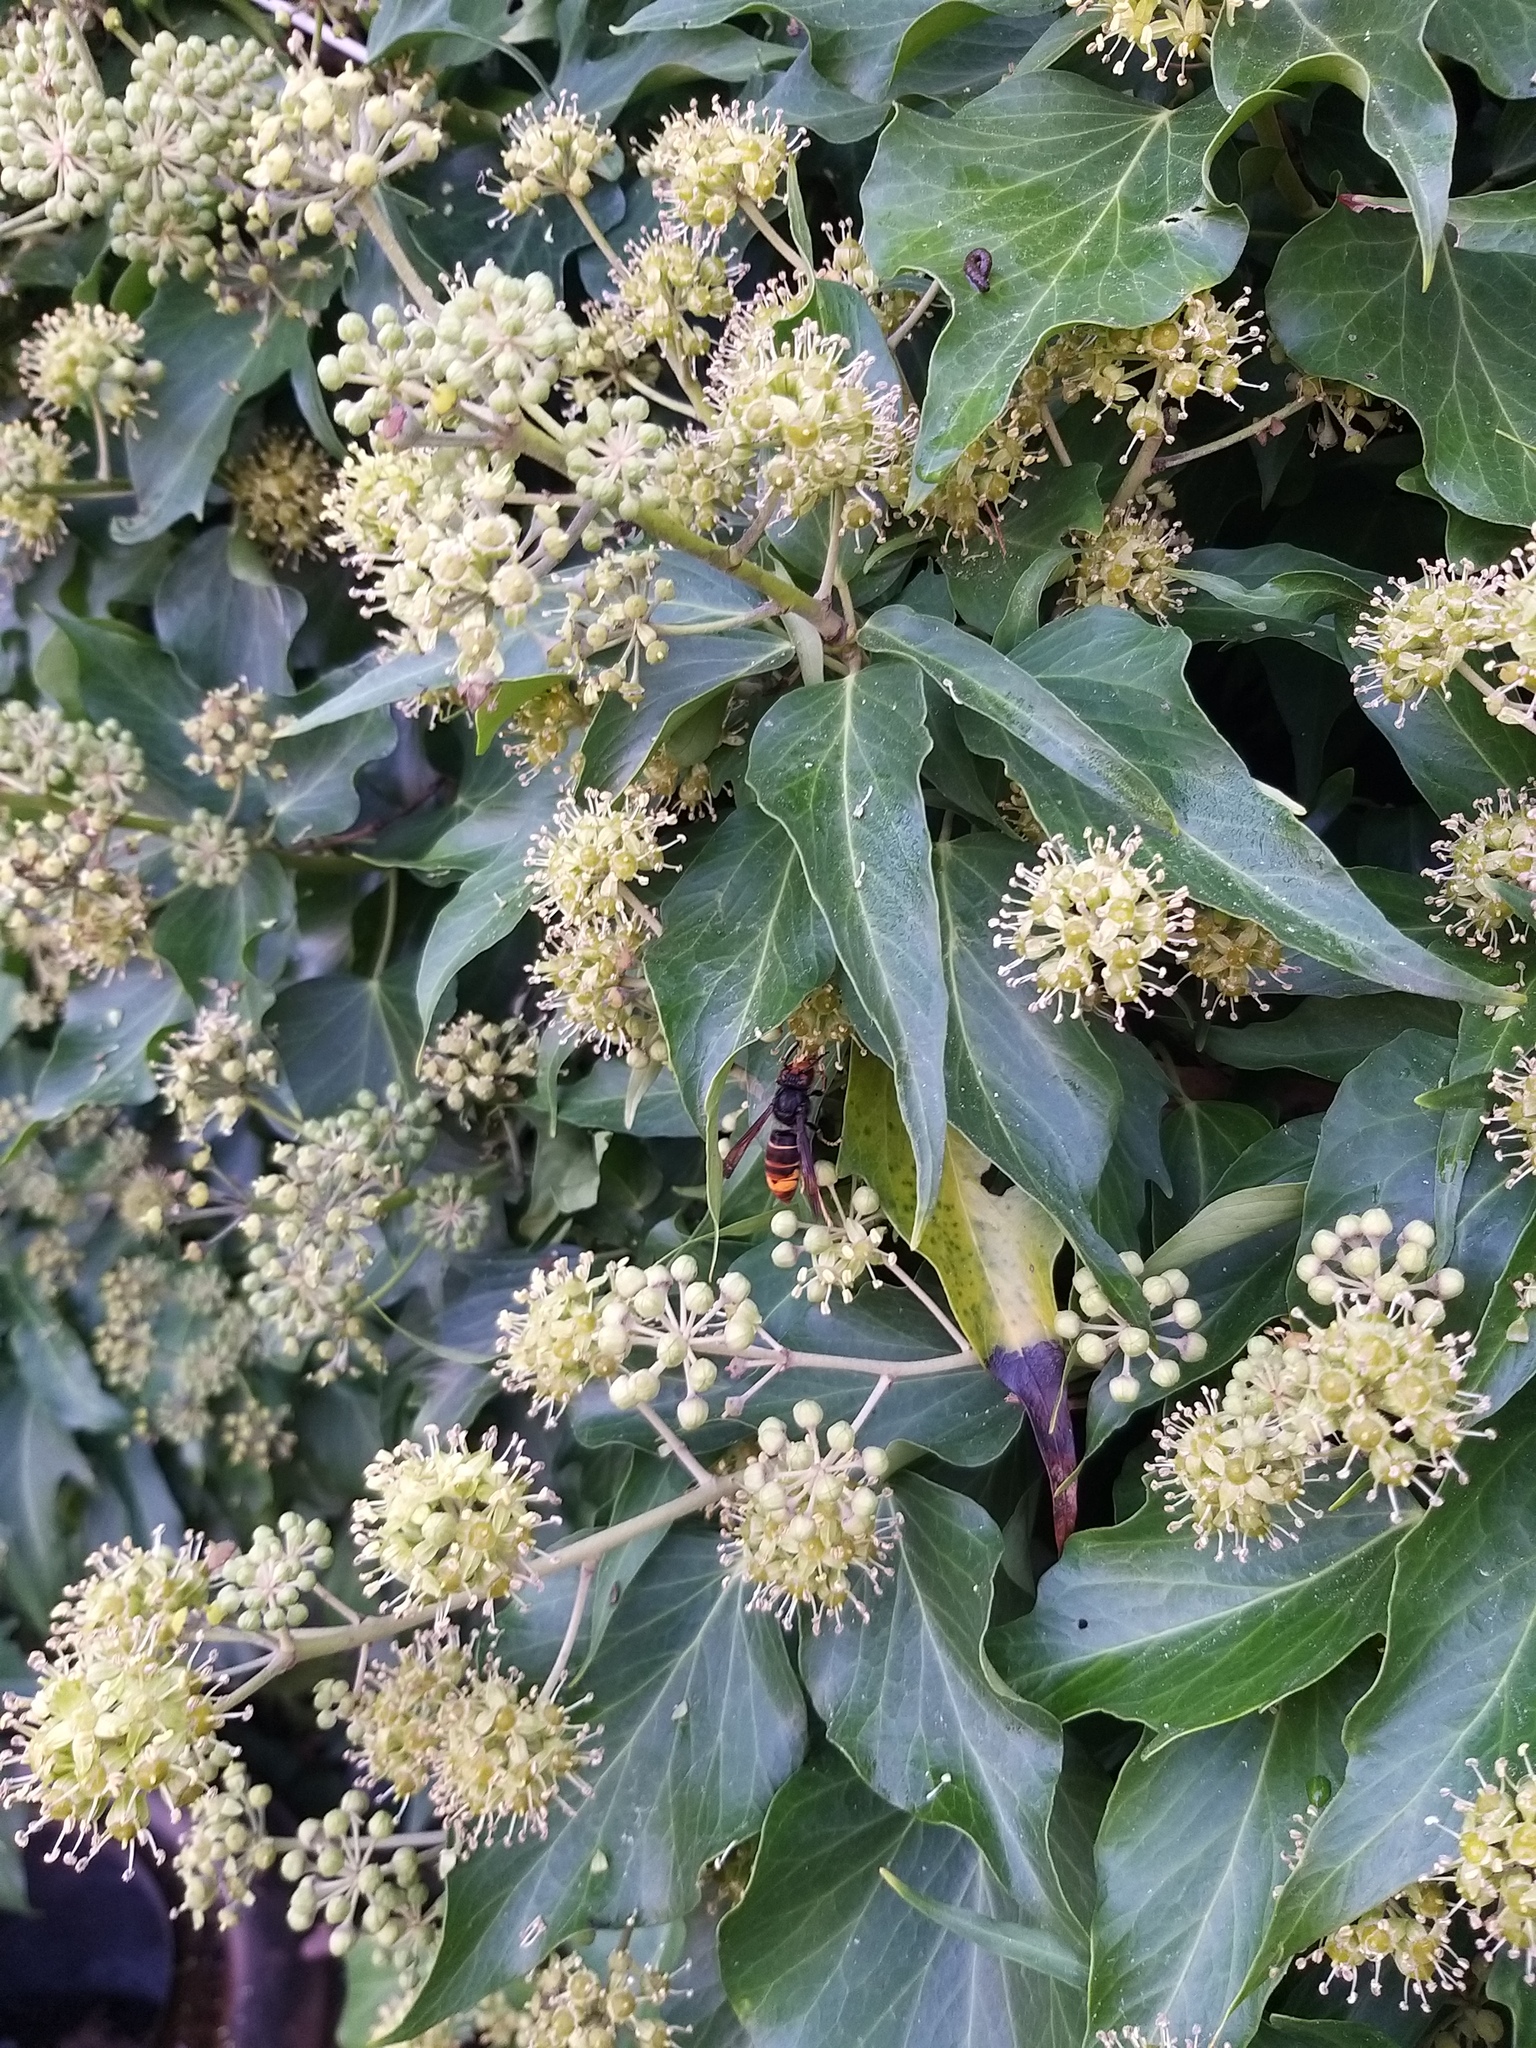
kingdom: Animalia
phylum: Arthropoda
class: Insecta
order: Hymenoptera
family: Vespidae
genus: Vespa
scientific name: Vespa velutina
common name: Asian hornet
